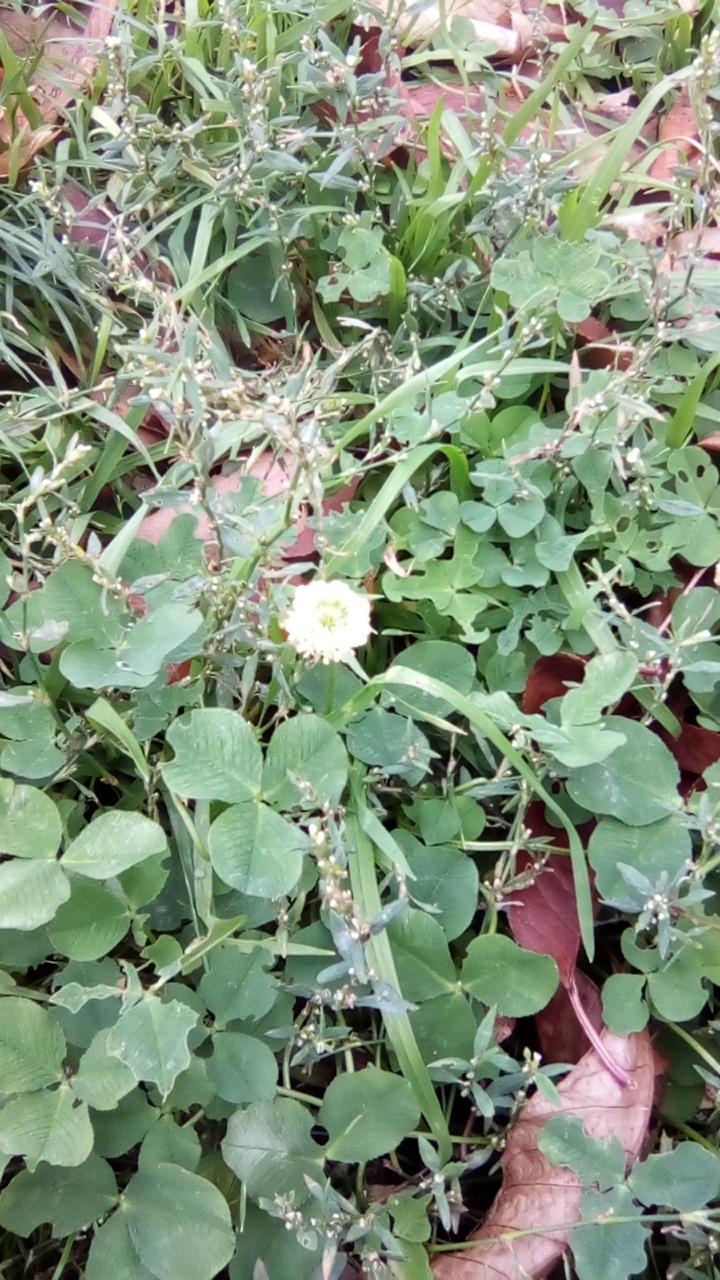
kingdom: Plantae
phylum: Tracheophyta
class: Magnoliopsida
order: Fabales
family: Fabaceae
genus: Trifolium
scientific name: Trifolium repens
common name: White clover
